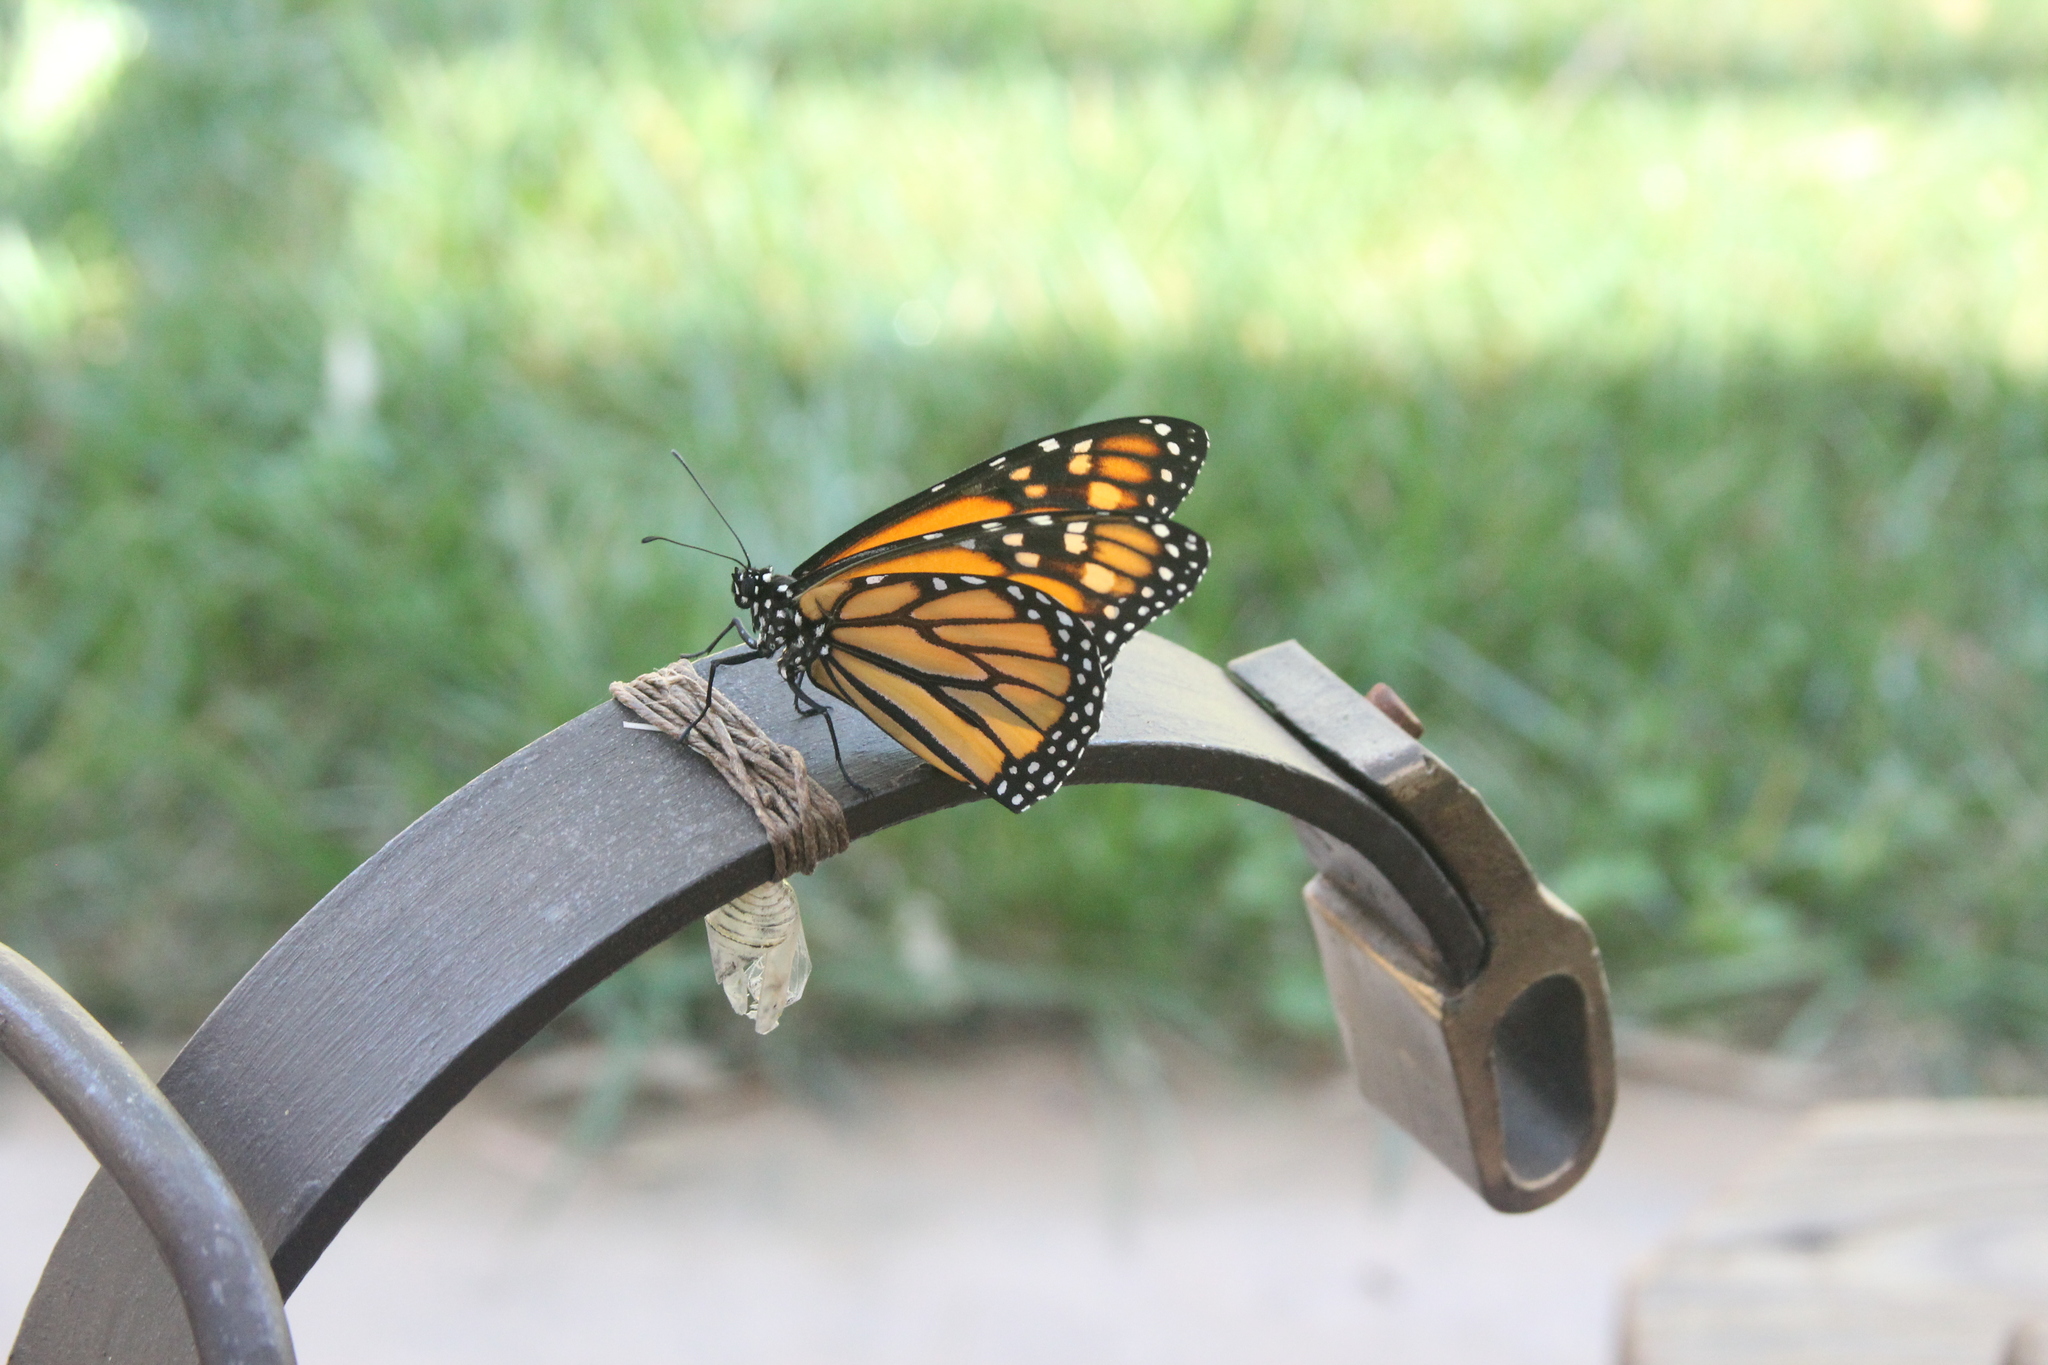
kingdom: Animalia
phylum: Arthropoda
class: Insecta
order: Lepidoptera
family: Nymphalidae
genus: Danaus
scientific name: Danaus plexippus
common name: Monarch
